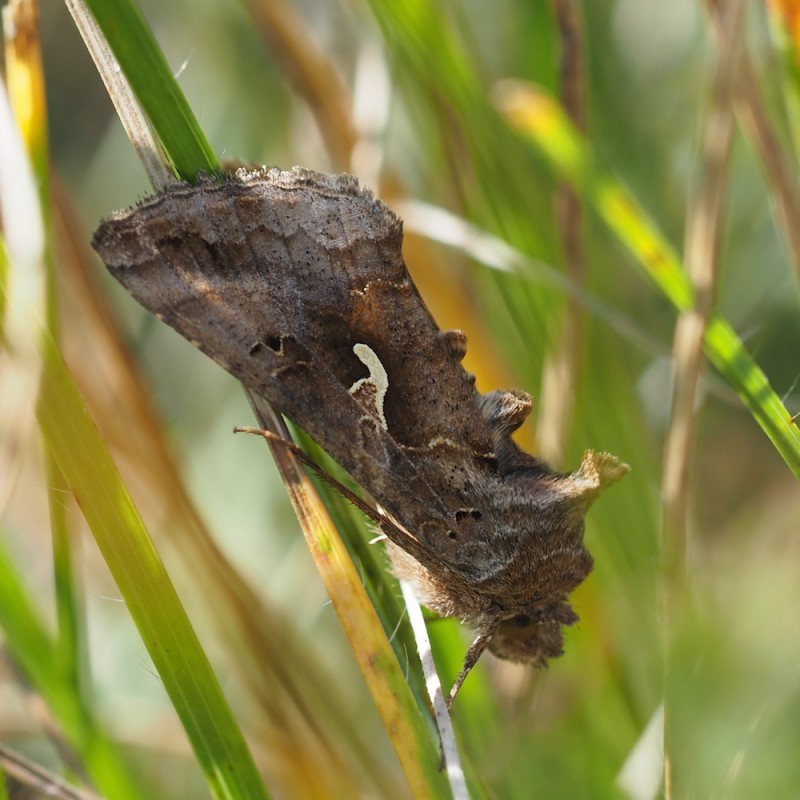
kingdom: Animalia
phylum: Arthropoda
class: Insecta
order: Lepidoptera
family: Noctuidae
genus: Autographa
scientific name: Autographa gamma
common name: Silver y
